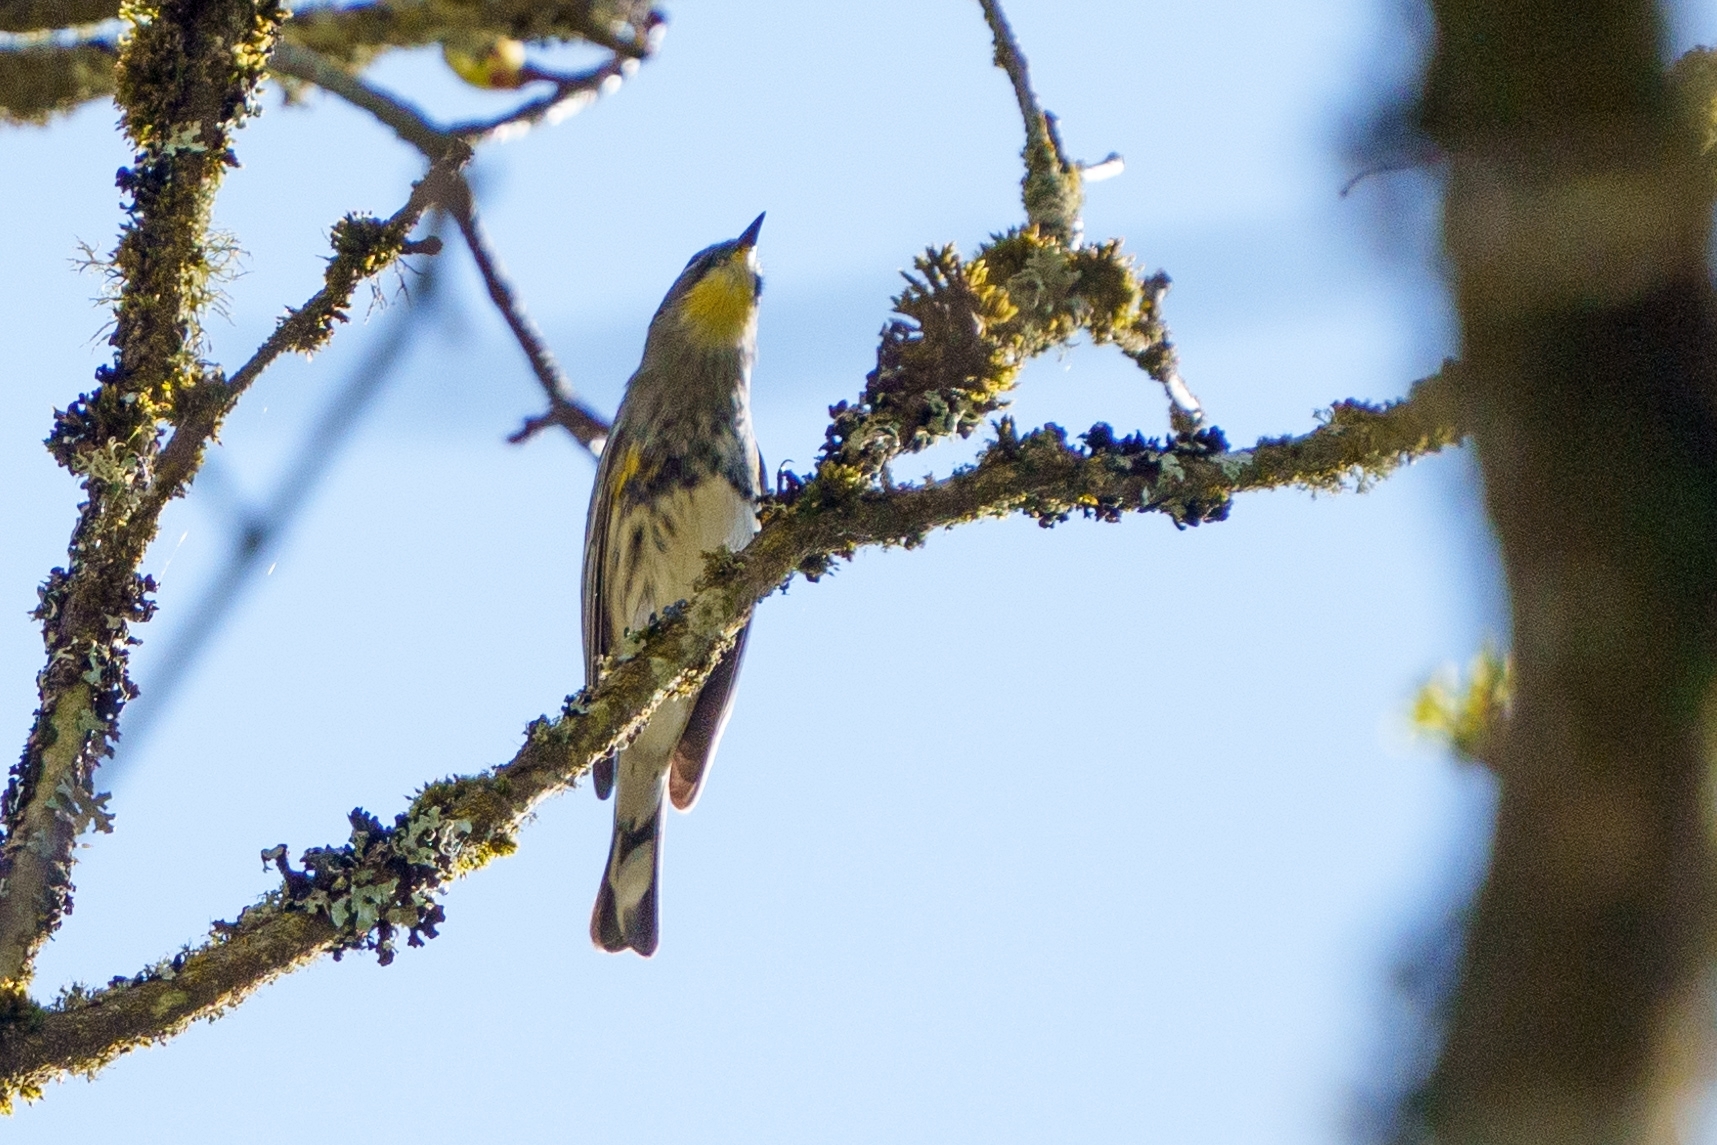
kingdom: Animalia
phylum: Chordata
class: Aves
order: Passeriformes
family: Parulidae
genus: Setophaga
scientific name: Setophaga coronata
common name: Myrtle warbler
